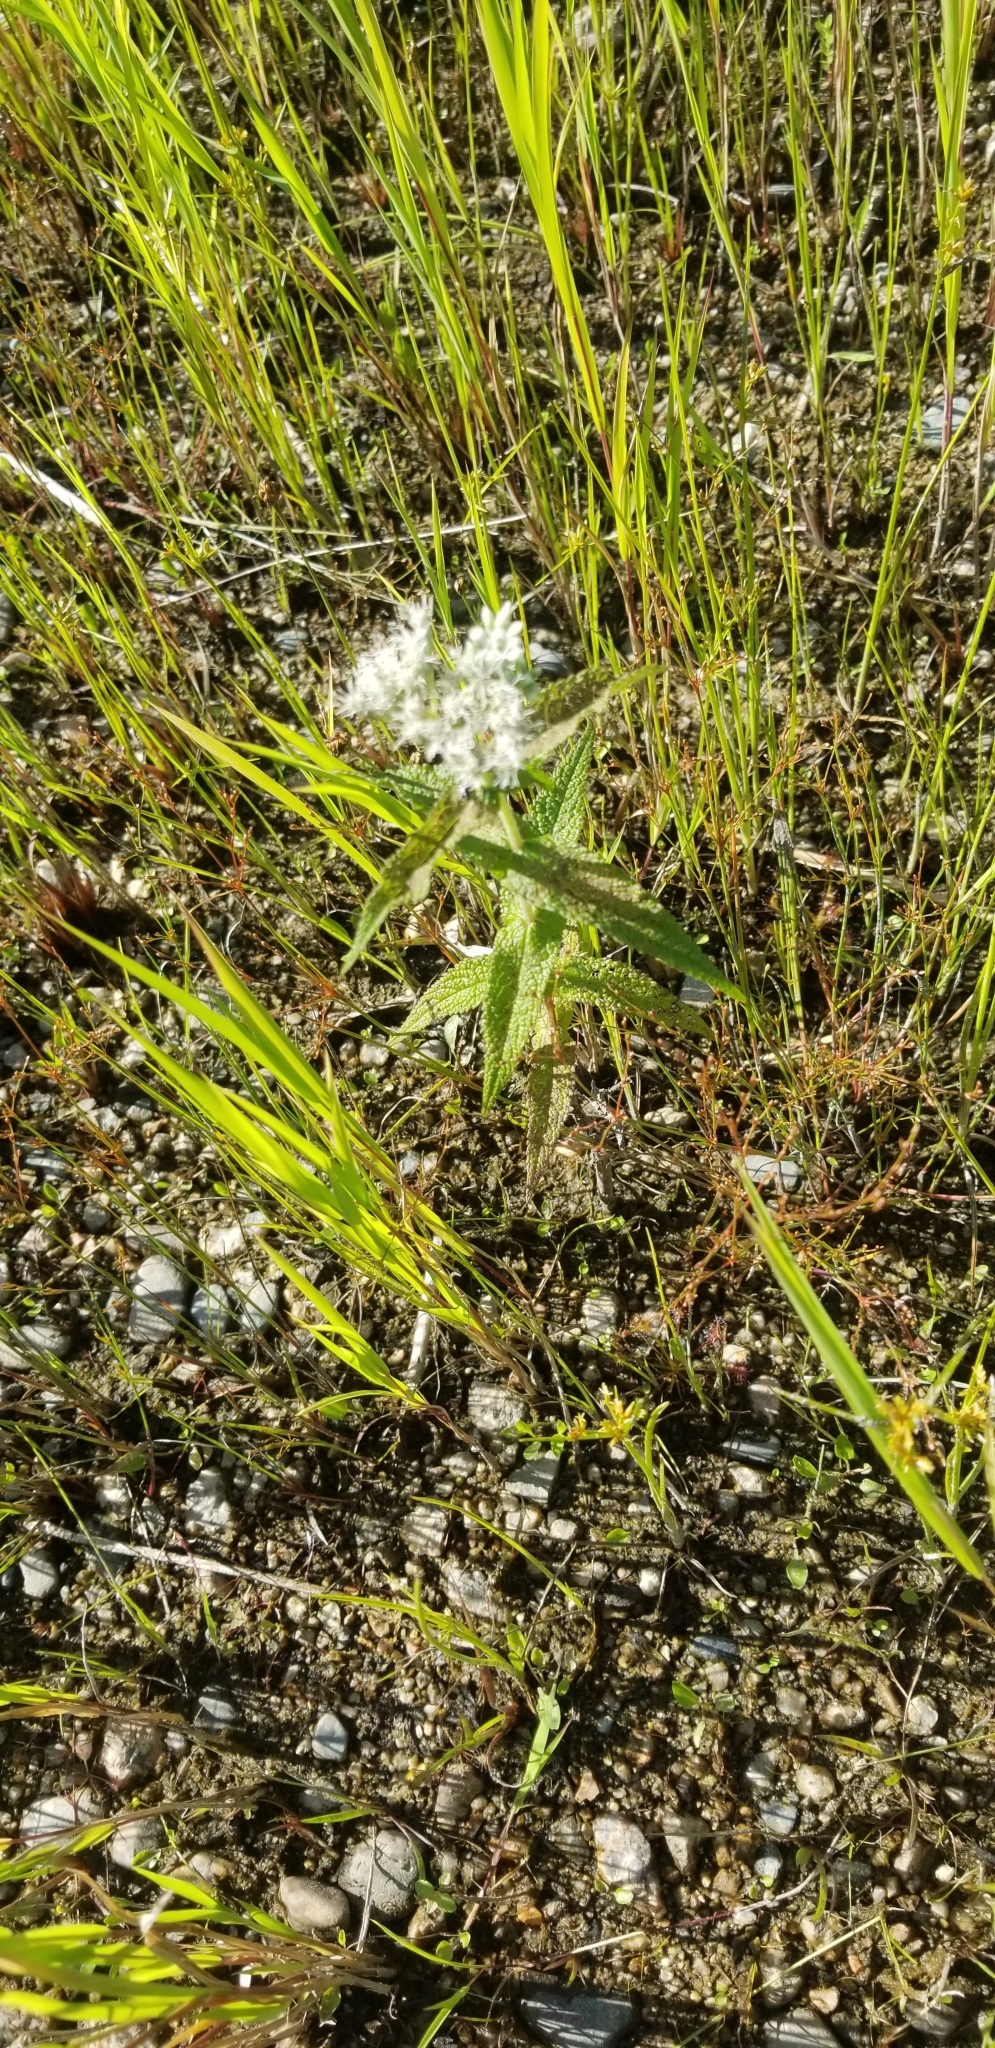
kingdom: Plantae
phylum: Tracheophyta
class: Magnoliopsida
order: Asterales
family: Asteraceae
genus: Eupatorium
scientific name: Eupatorium perfoliatum
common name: Boneset
